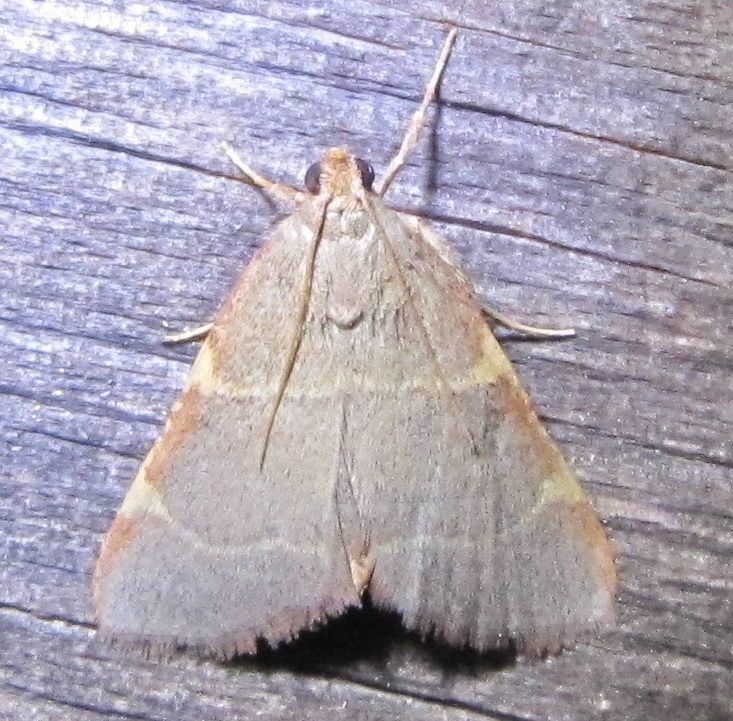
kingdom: Animalia
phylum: Arthropoda
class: Insecta
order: Lepidoptera
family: Pyralidae
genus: Hypsopygia
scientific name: Hypsopygia binodulalis
